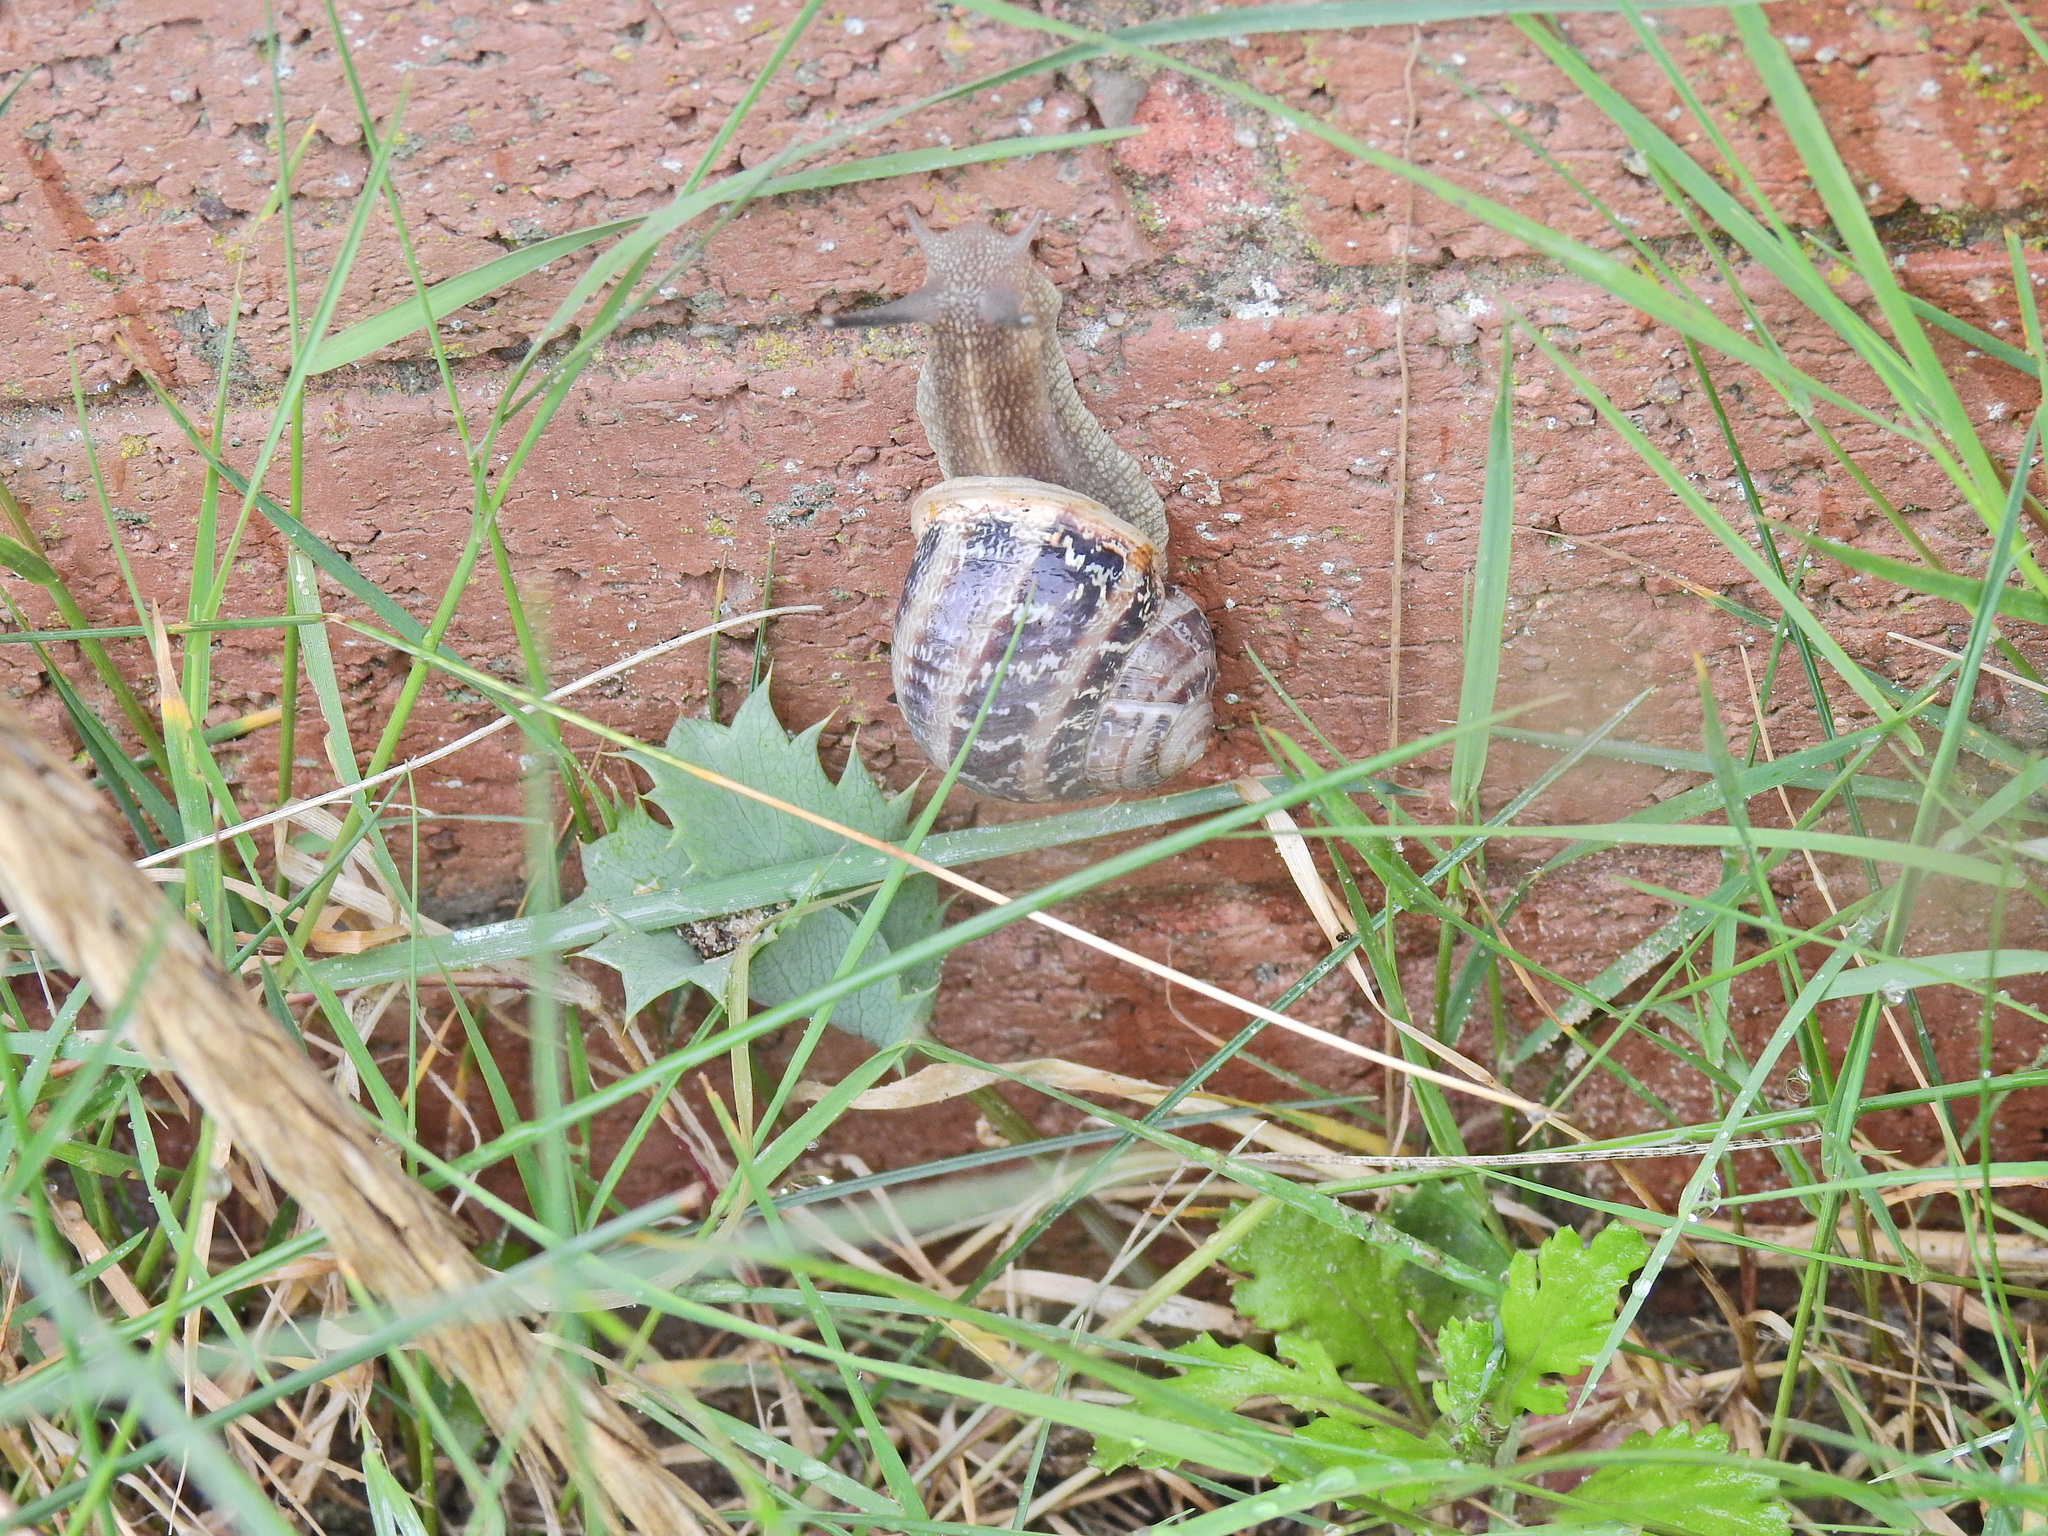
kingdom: Animalia
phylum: Mollusca
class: Gastropoda
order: Stylommatophora
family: Helicidae
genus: Cornu
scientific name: Cornu aspersum
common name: Brown garden snail
